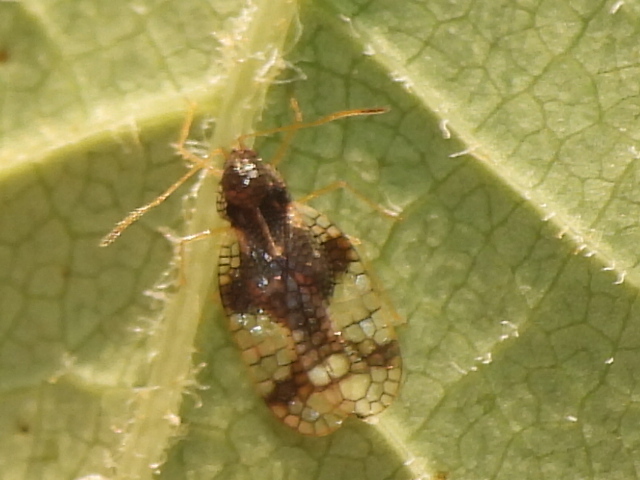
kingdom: Animalia
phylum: Arthropoda
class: Insecta
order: Hemiptera
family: Tingidae
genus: Stephanitis
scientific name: Stephanitis takeyai
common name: Andromeda lacebug
